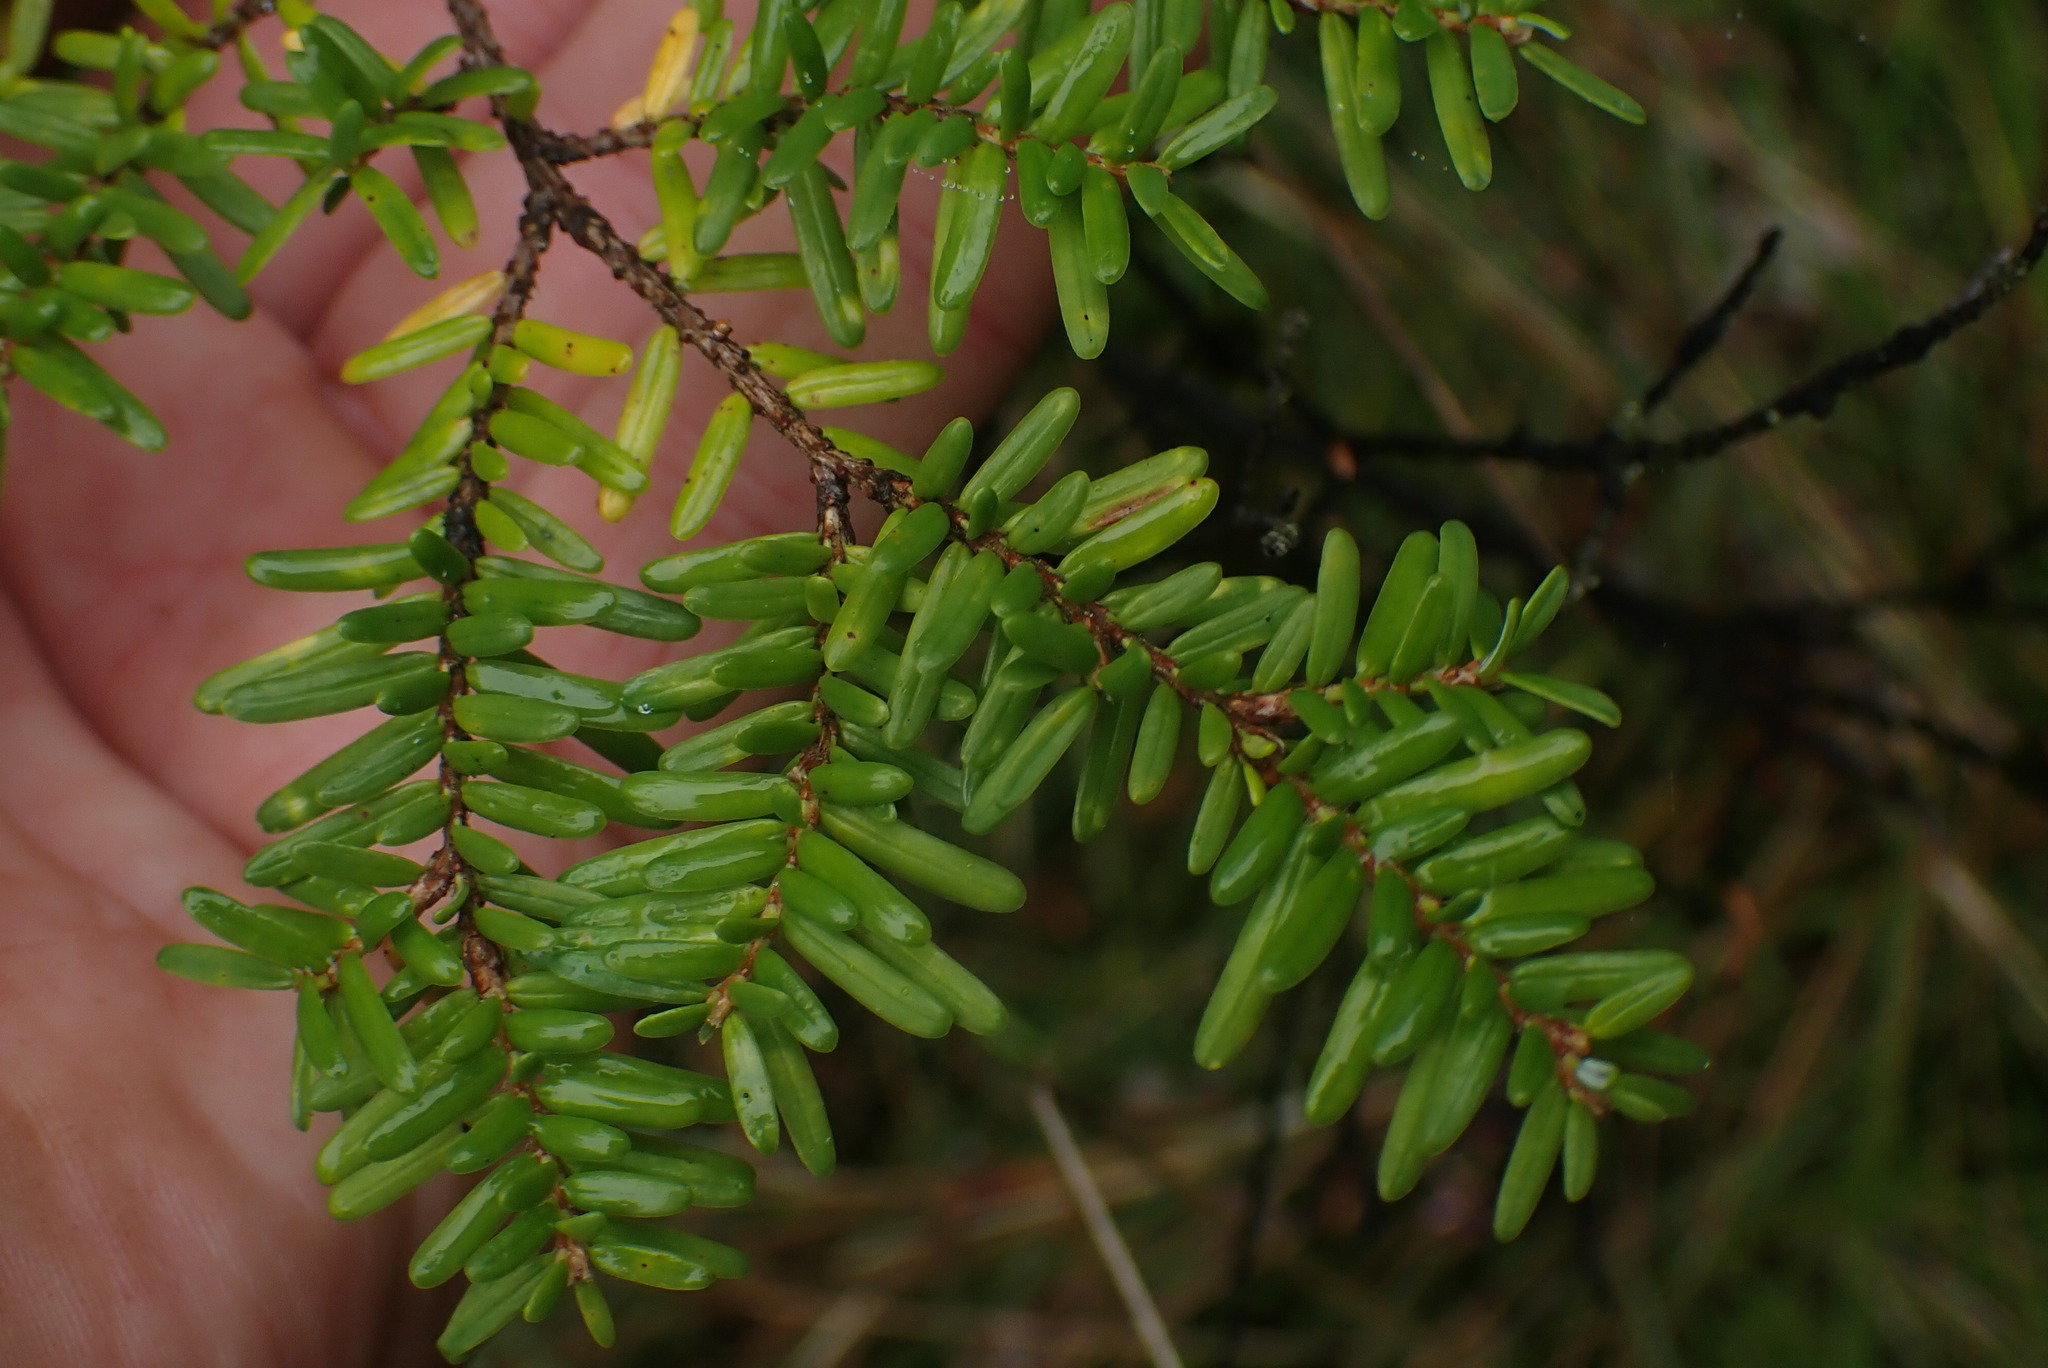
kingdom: Plantae
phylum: Tracheophyta
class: Pinopsida
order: Pinales
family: Pinaceae
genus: Tsuga
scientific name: Tsuga heterophylla
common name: Western hemlock
